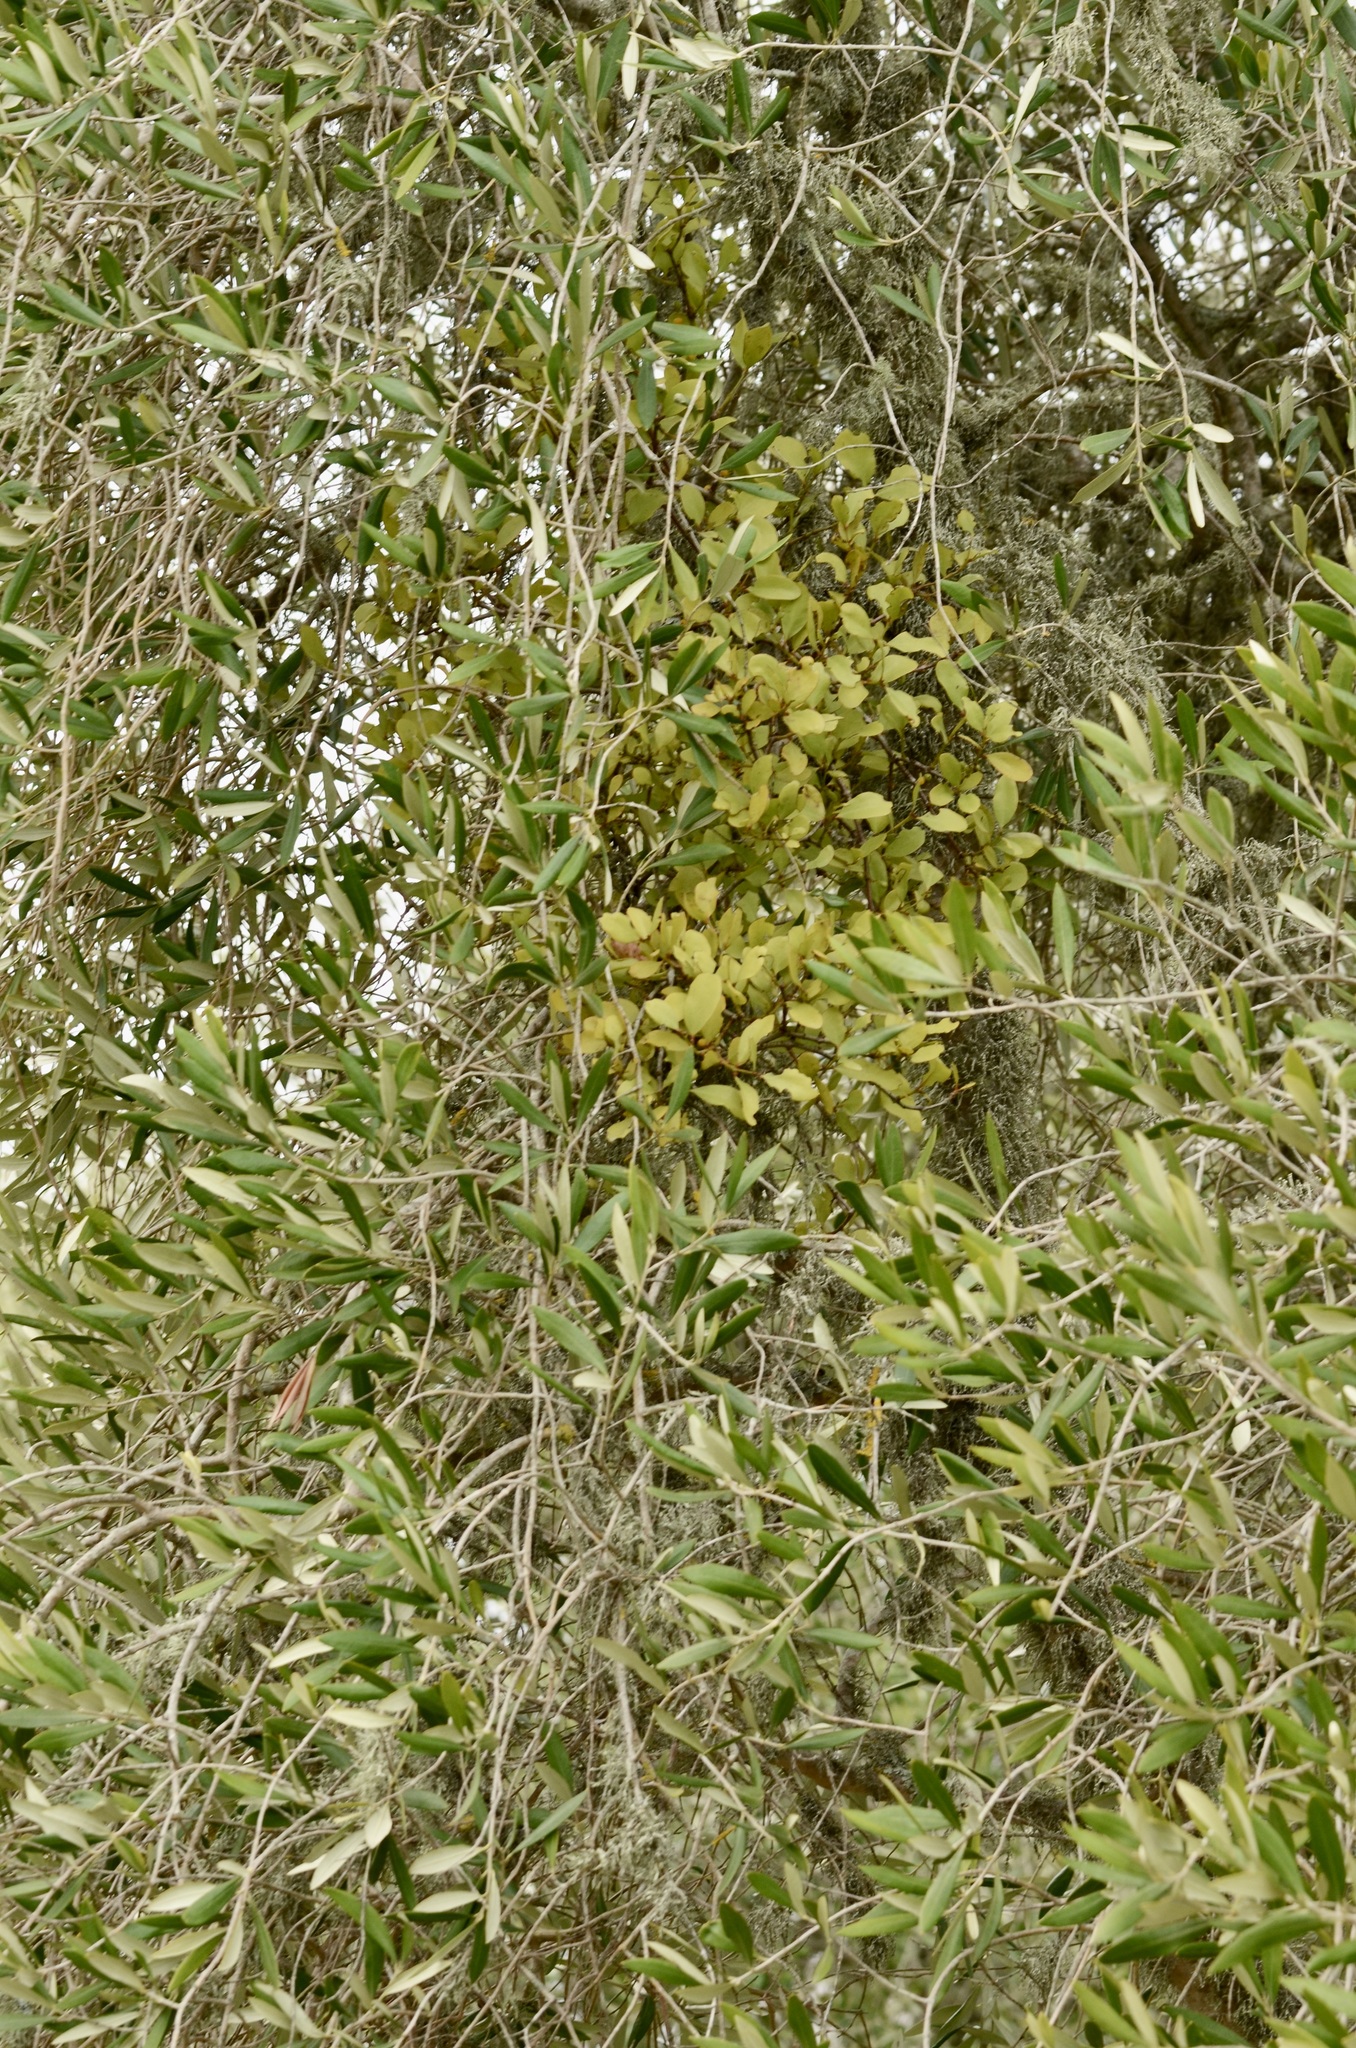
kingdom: Plantae
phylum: Tracheophyta
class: Magnoliopsida
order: Santalales
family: Loranthaceae
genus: Ileostylus
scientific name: Ileostylus micranthus
